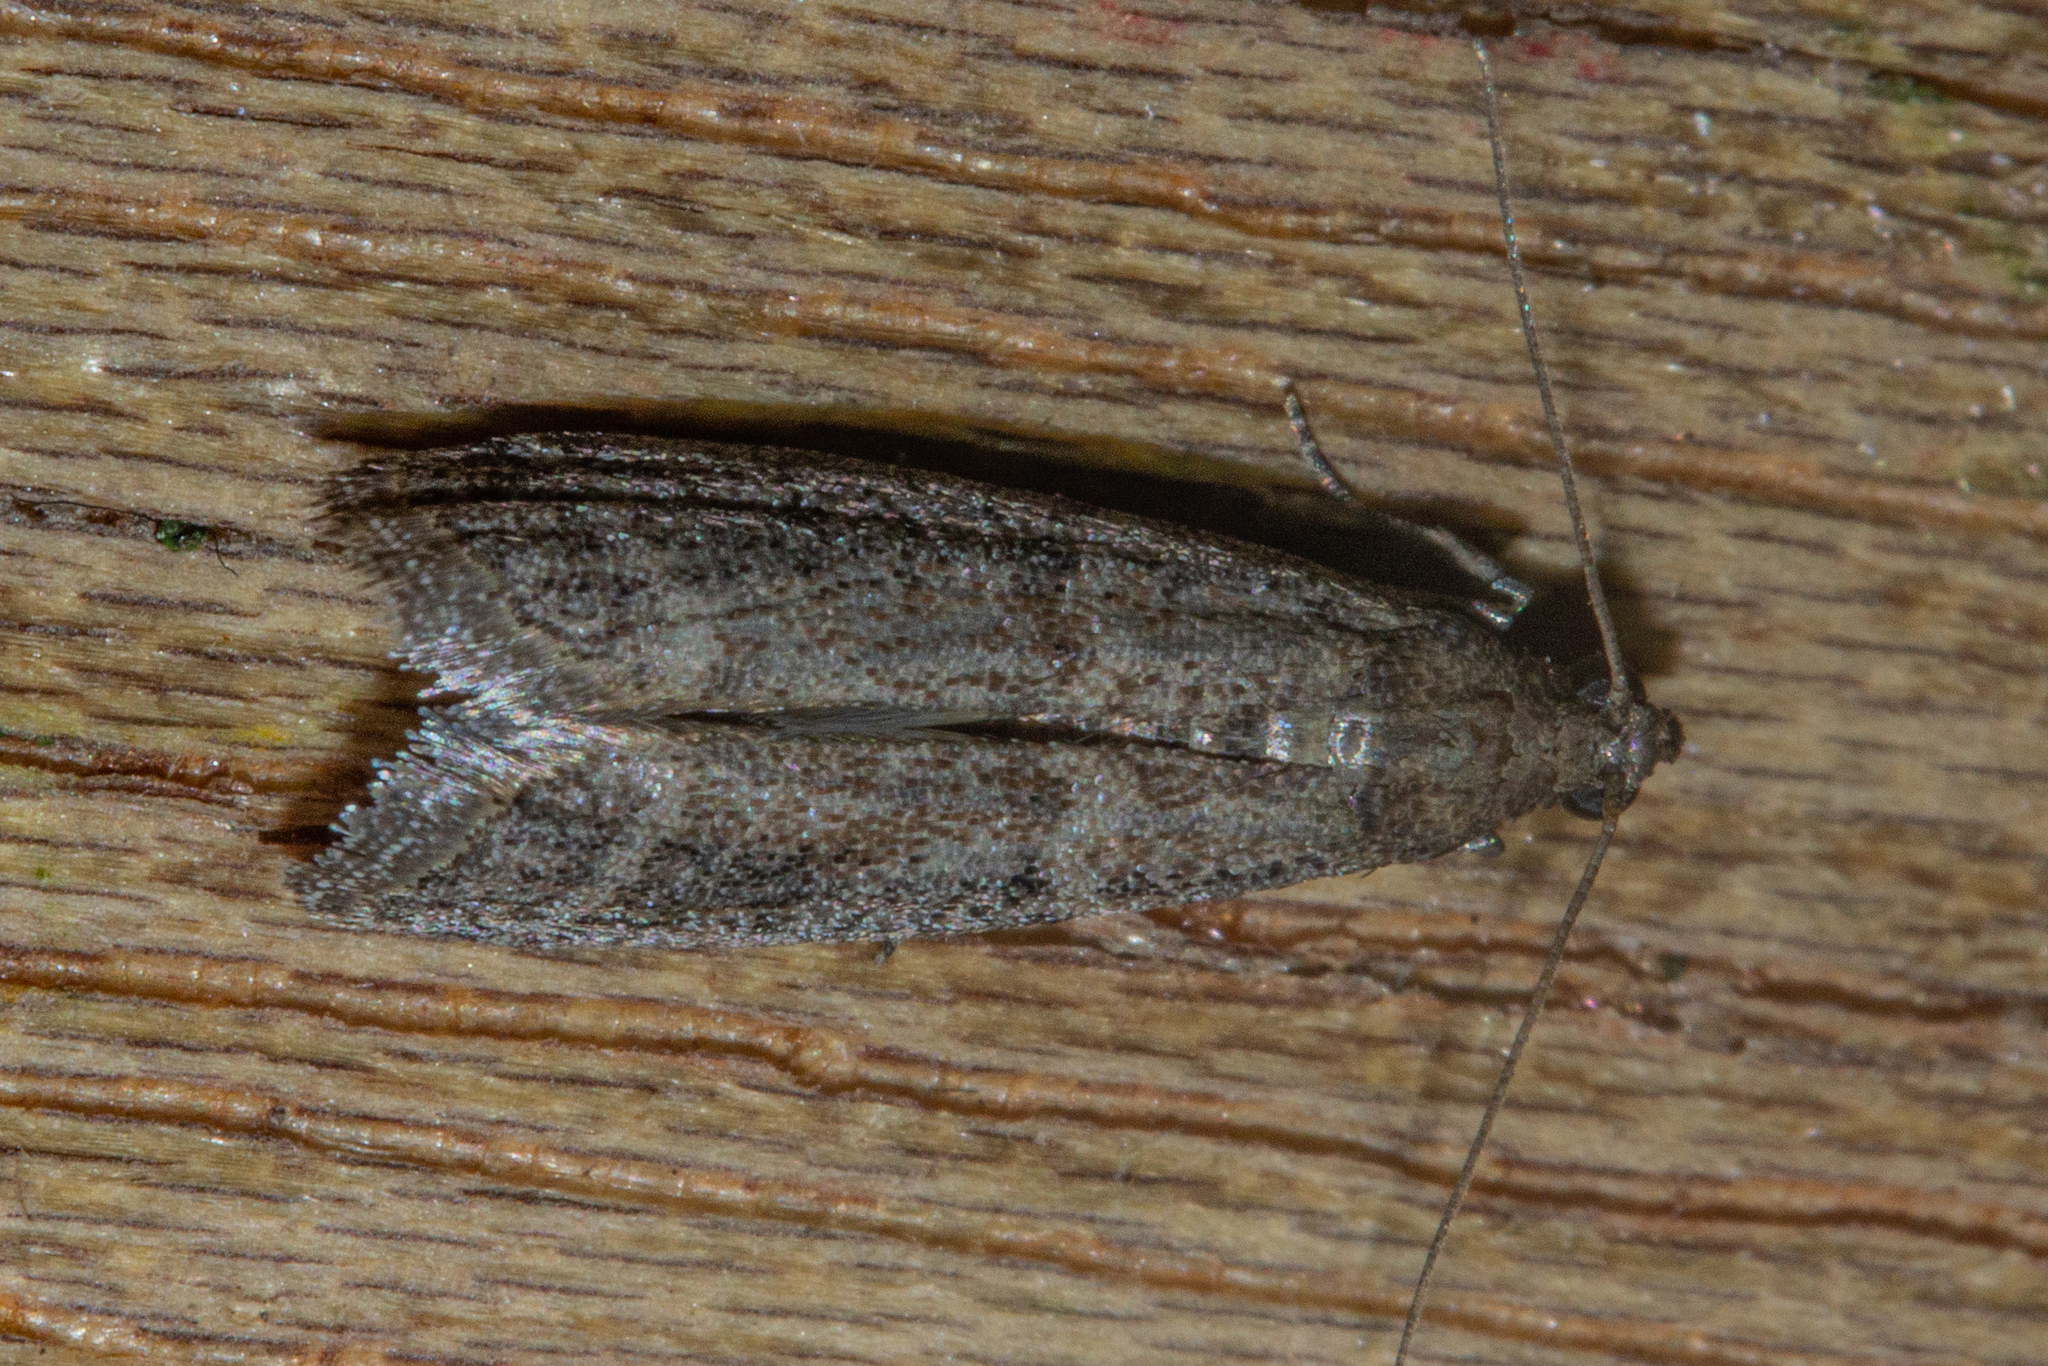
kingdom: Animalia
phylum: Arthropoda
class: Insecta
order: Lepidoptera
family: Pyralidae
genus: Ephestia
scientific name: Ephestia elutella
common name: Cacao moth
